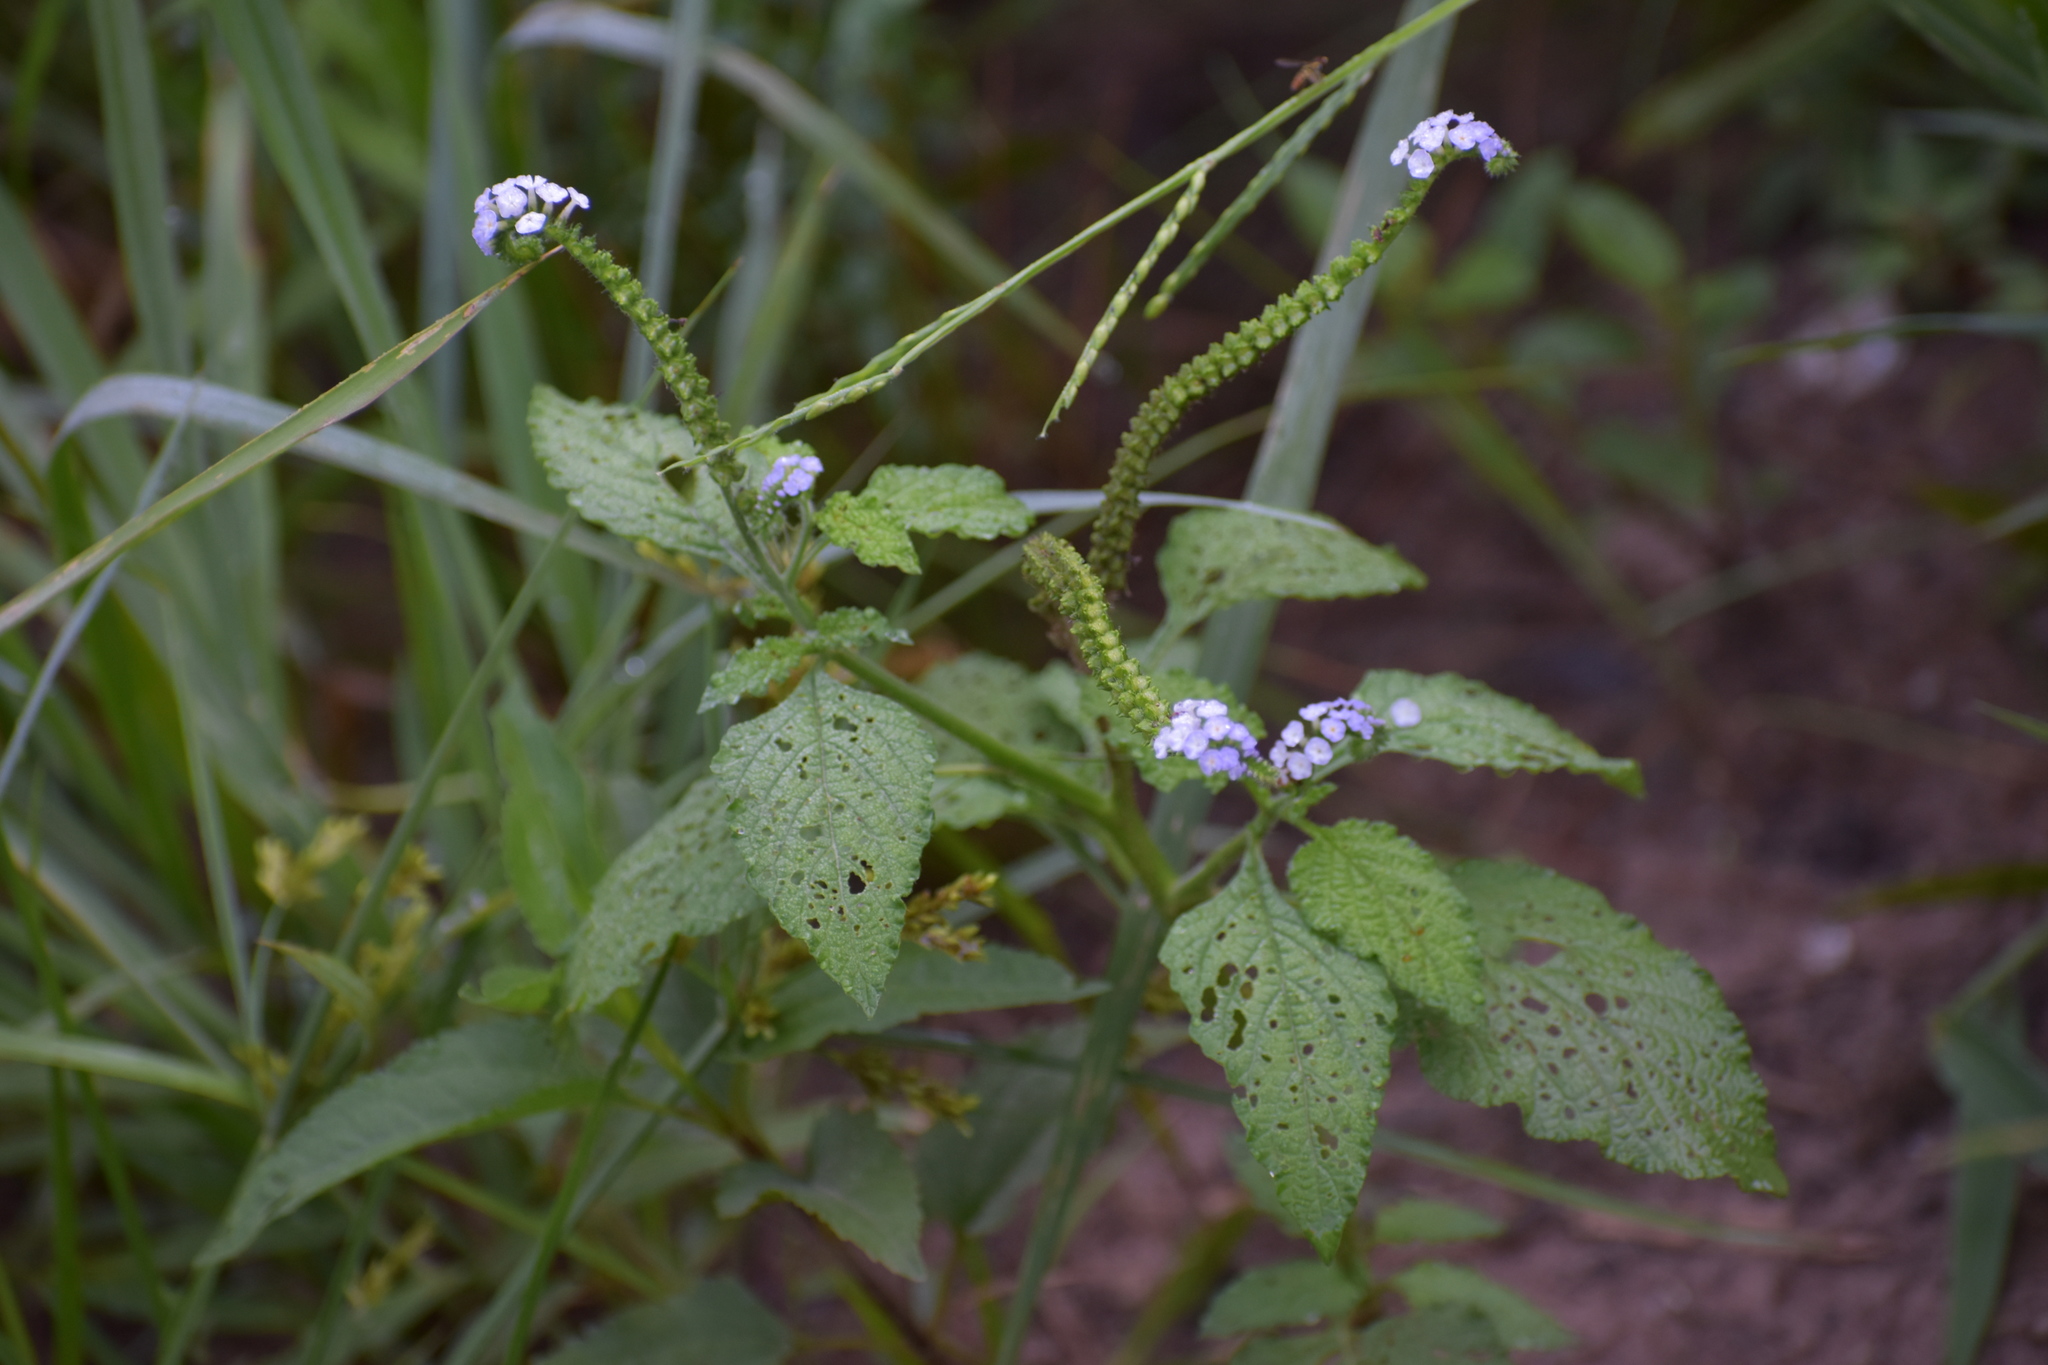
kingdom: Plantae
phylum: Tracheophyta
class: Magnoliopsida
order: Boraginales
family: Heliotropiaceae
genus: Heliotropium
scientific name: Heliotropium indicum
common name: Indian heliotrope
